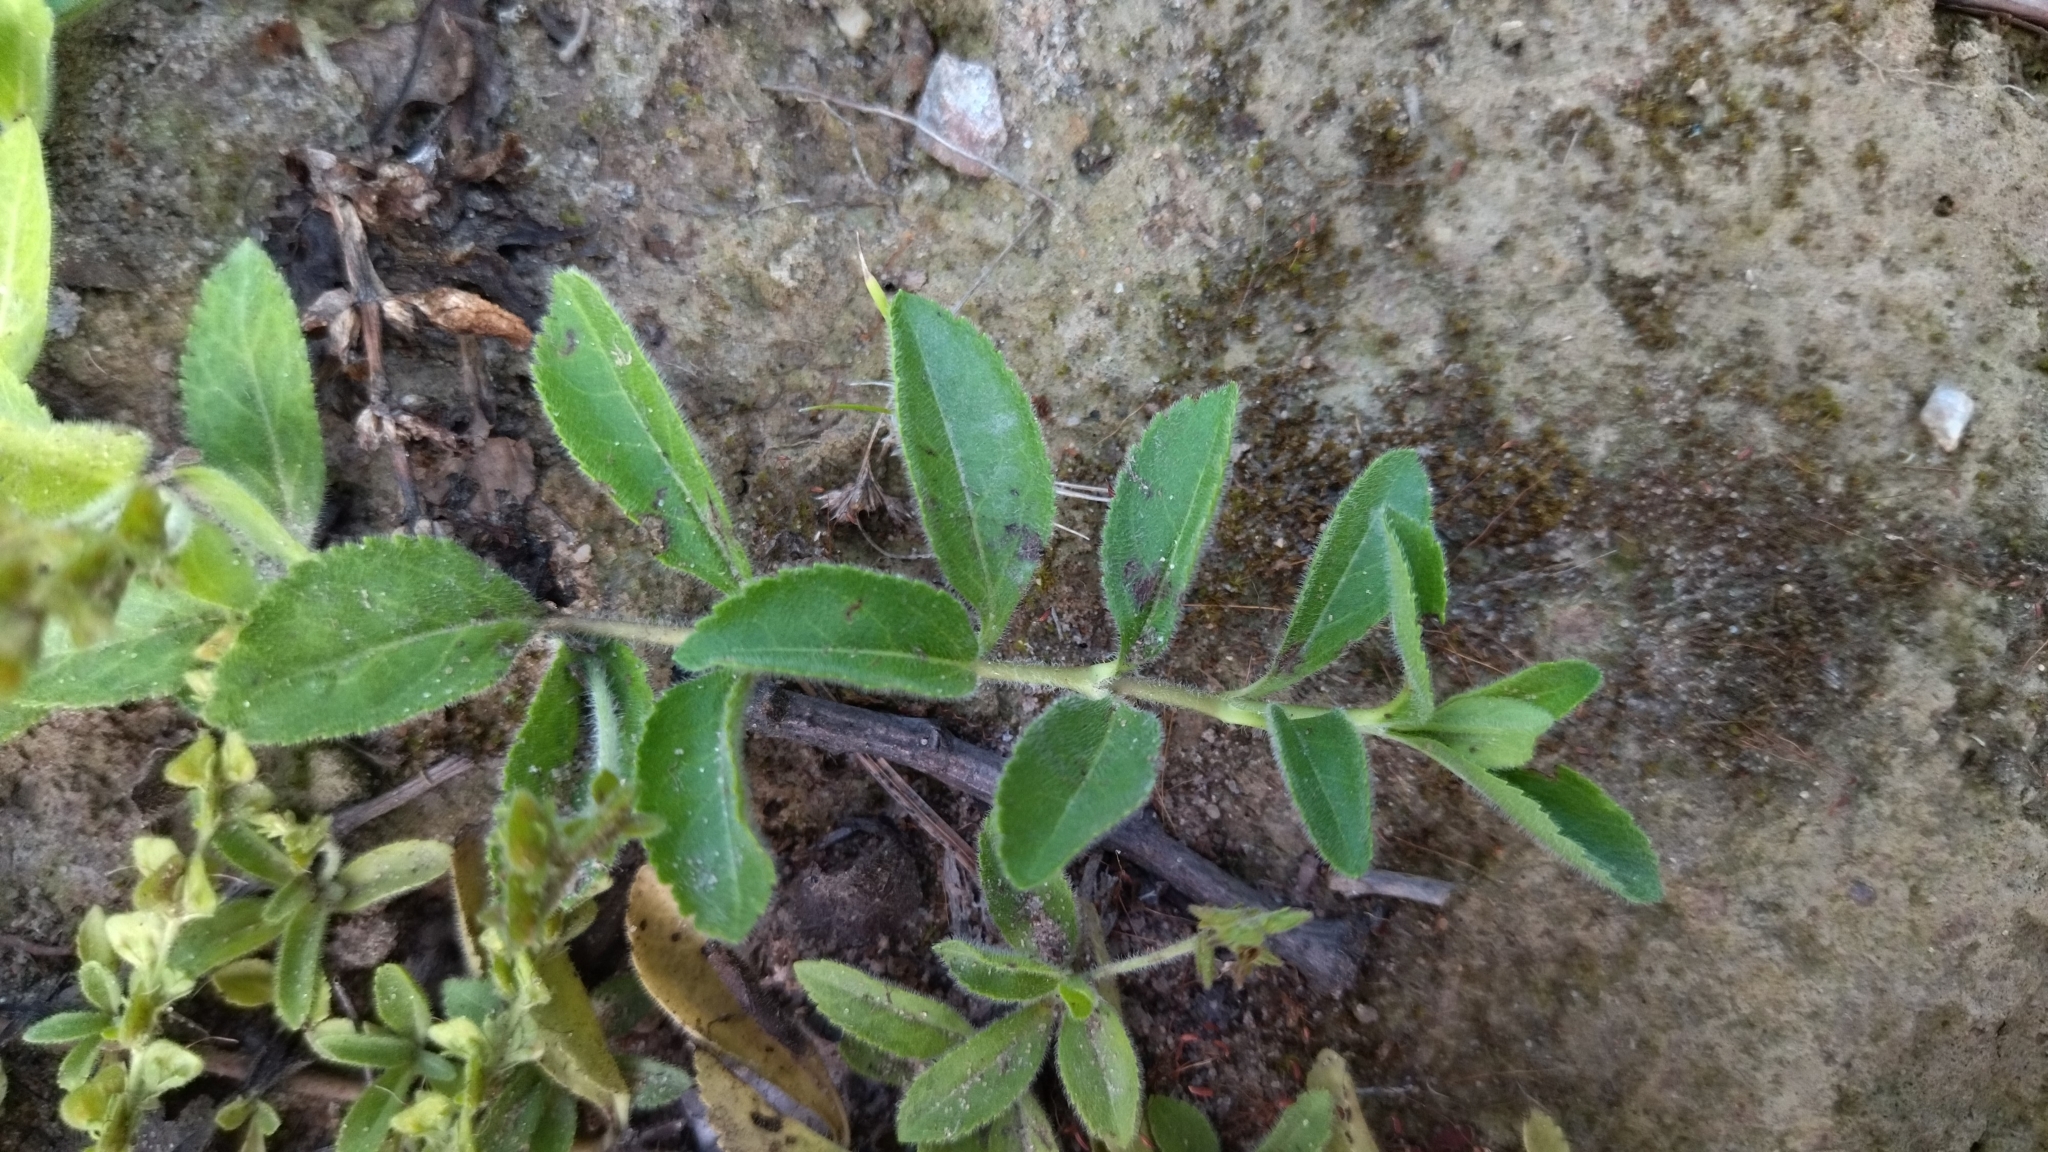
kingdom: Plantae
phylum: Tracheophyta
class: Magnoliopsida
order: Lamiales
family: Plantaginaceae
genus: Veronica
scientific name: Veronica officinalis
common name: Common speedwell
